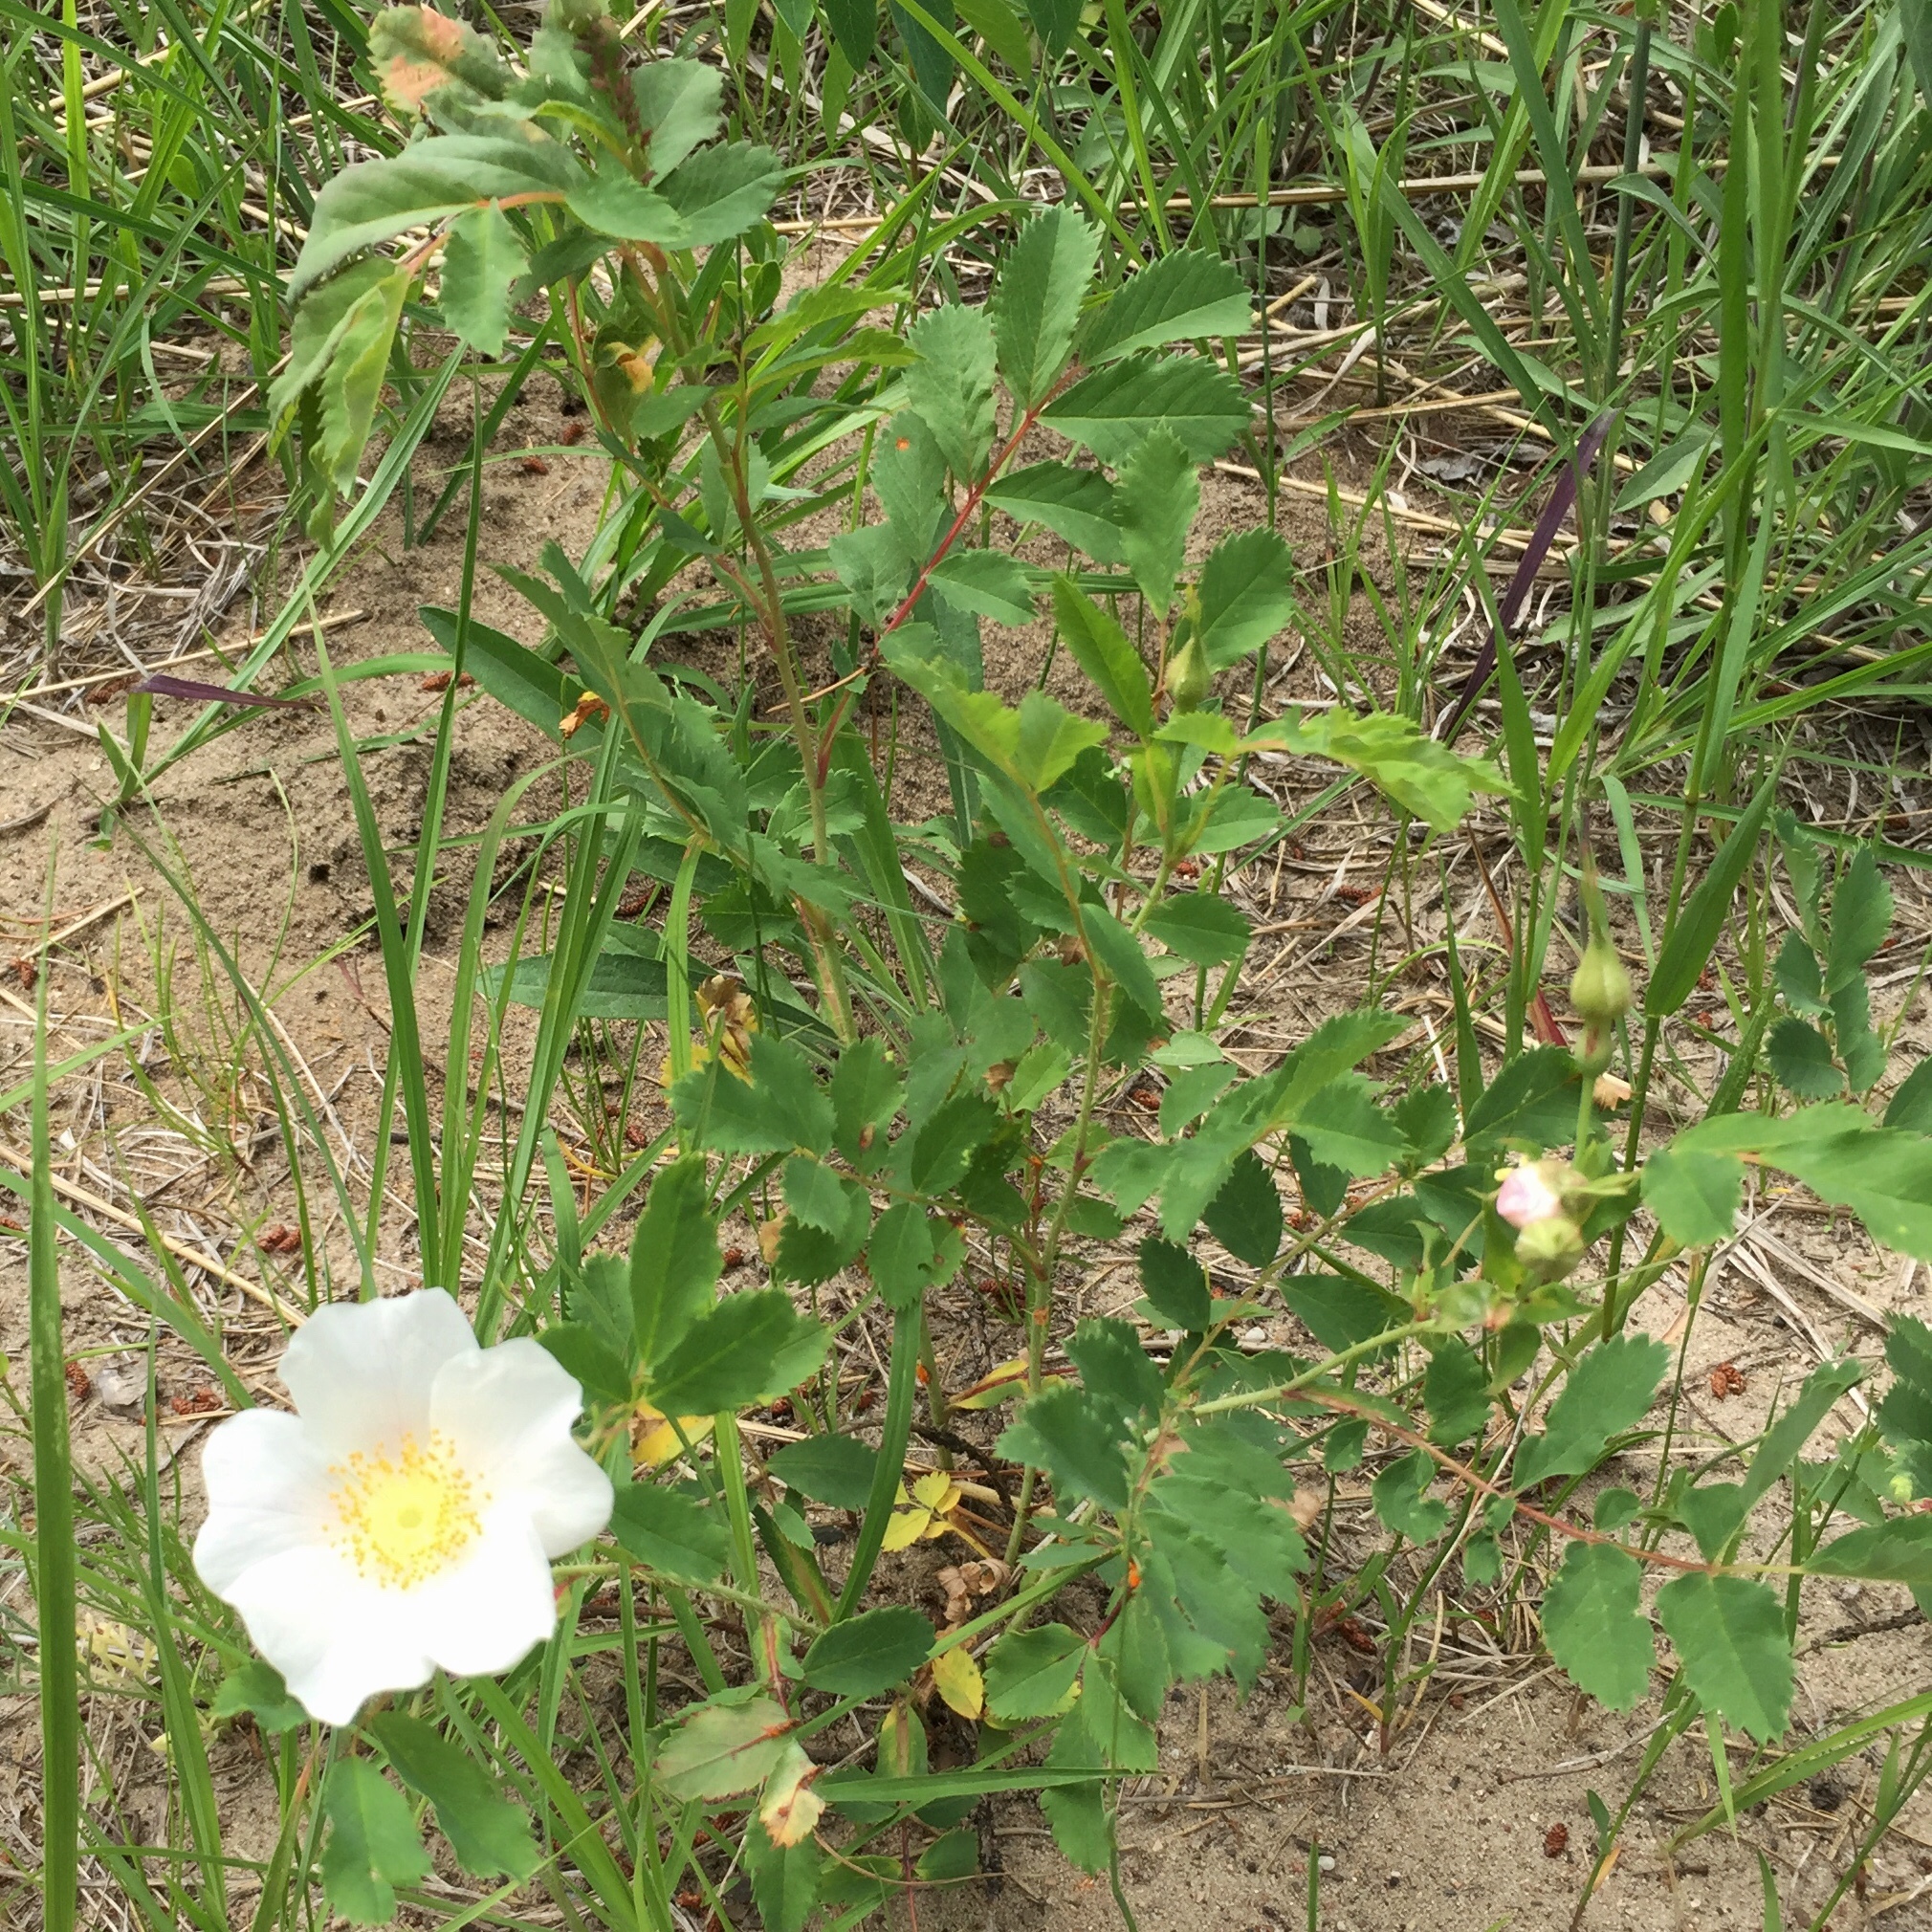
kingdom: Plantae
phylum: Tracheophyta
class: Magnoliopsida
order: Rosales
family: Rosaceae
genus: Rosa
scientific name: Rosa arkansana
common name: Prairie rose
